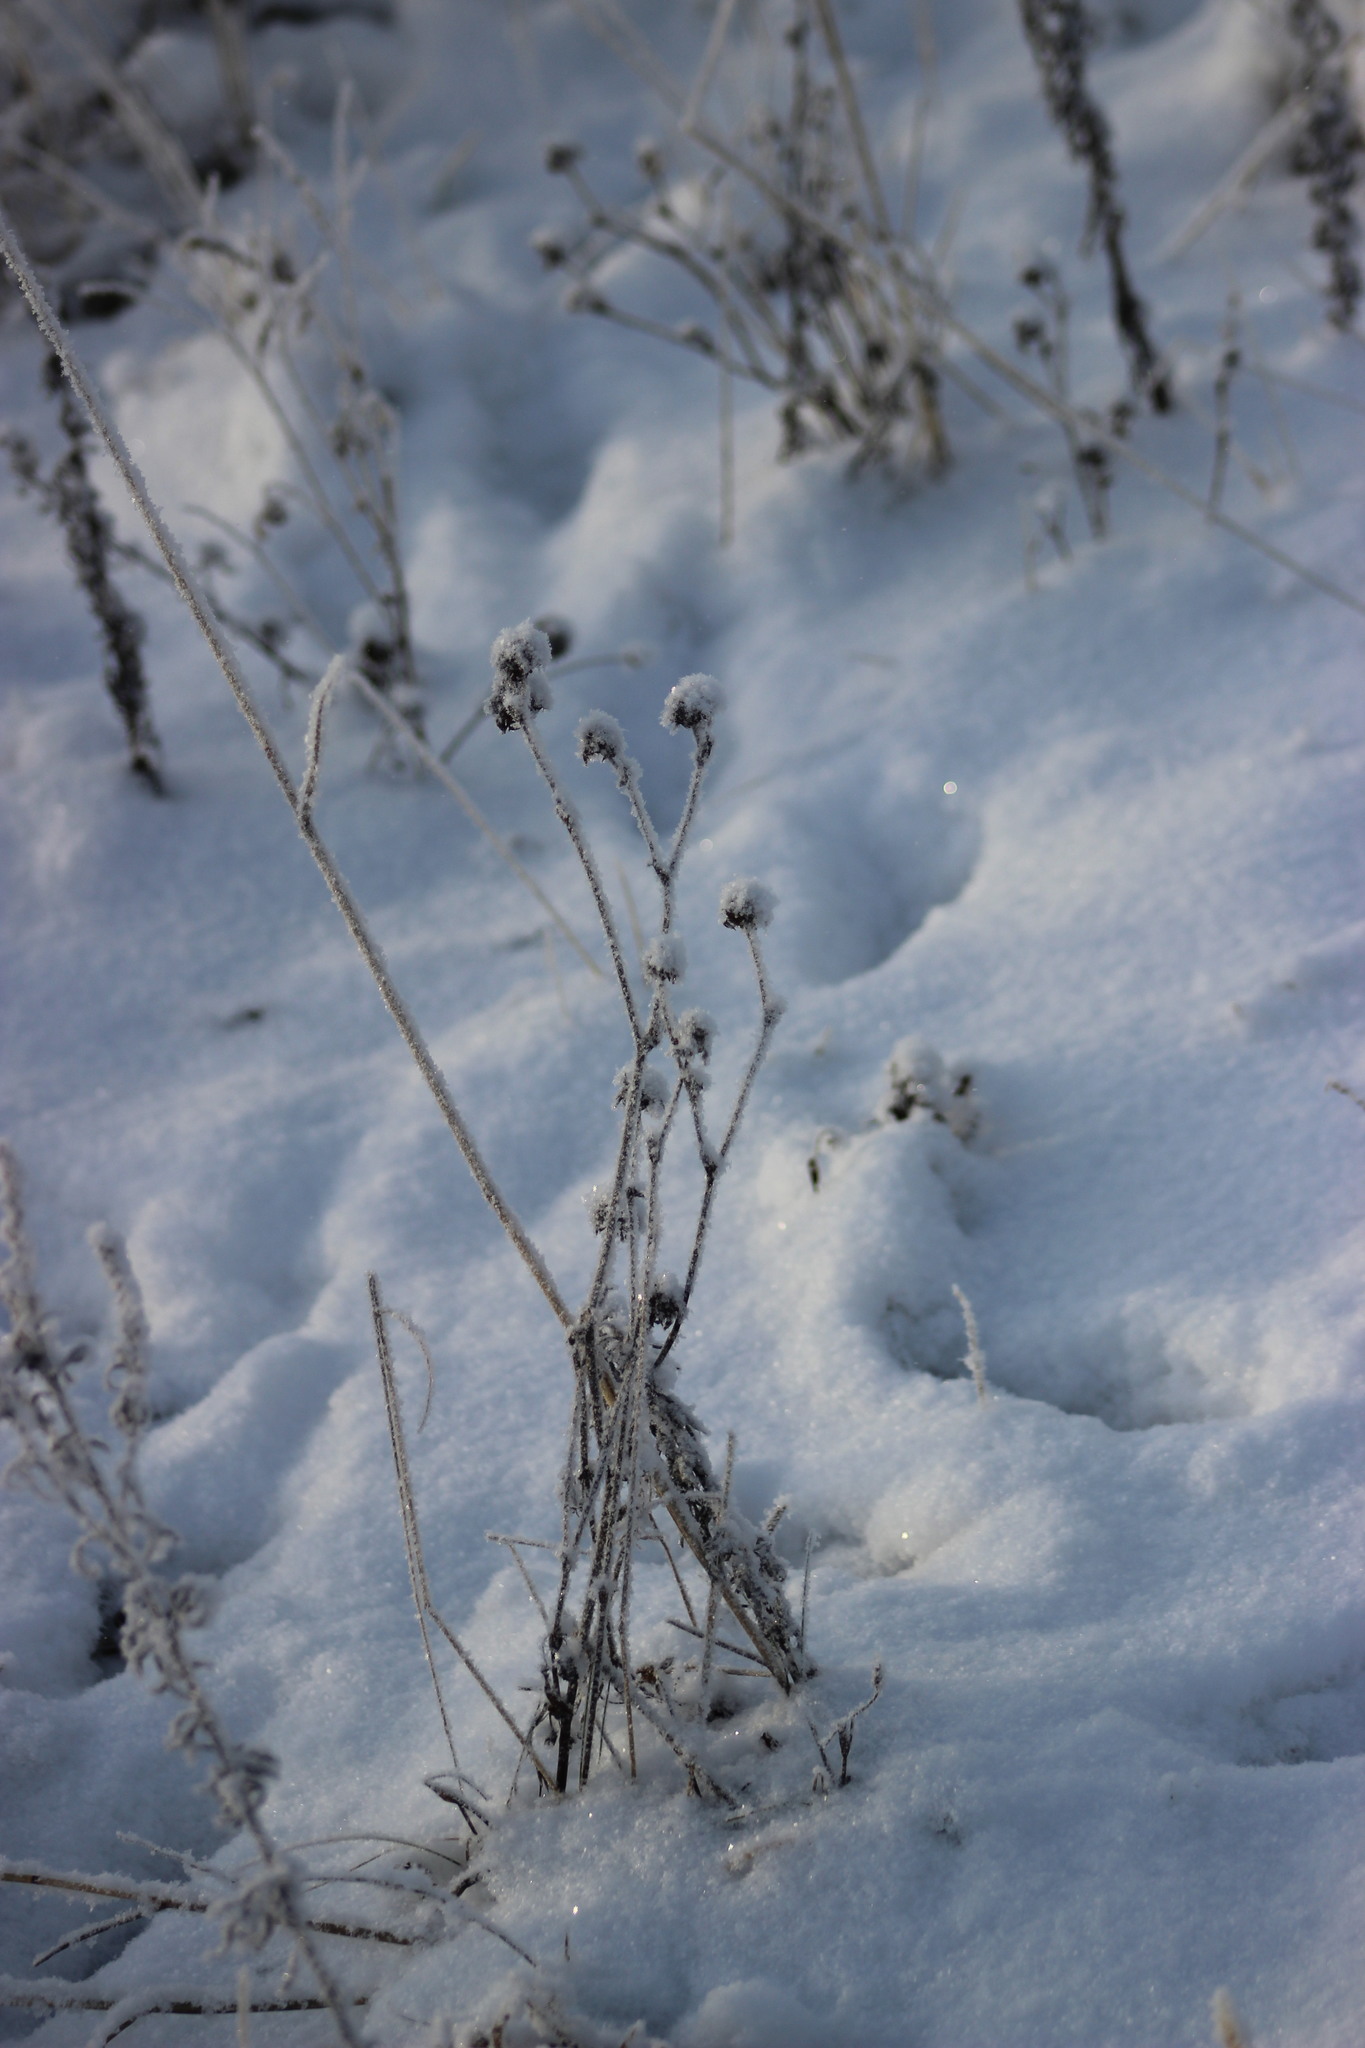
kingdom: Plantae
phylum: Tracheophyta
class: Magnoliopsida
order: Fabales
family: Fabaceae
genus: Trifolium
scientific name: Trifolium pratense
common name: Red clover
